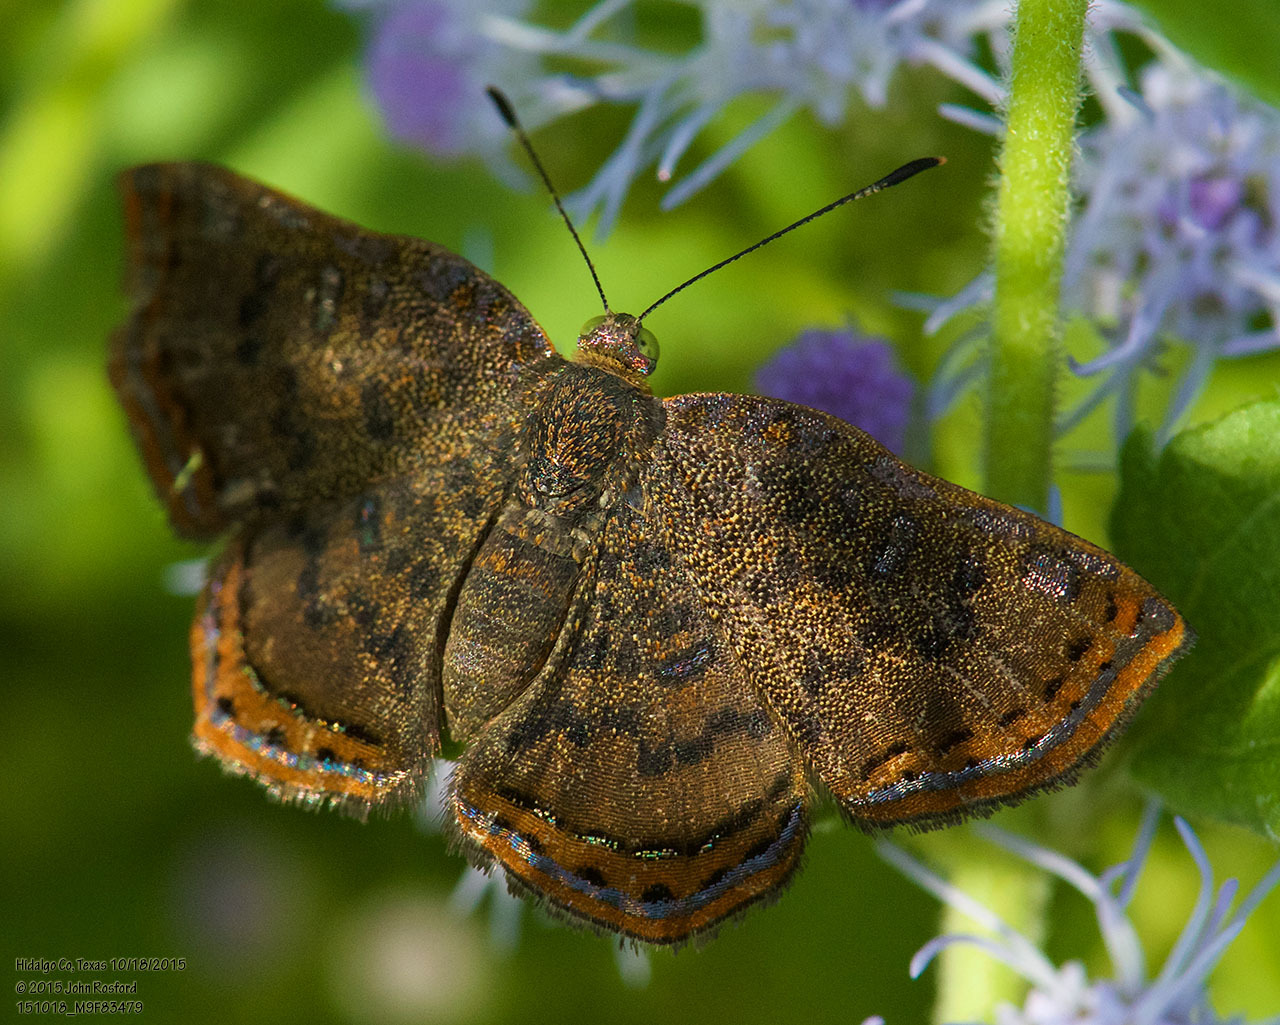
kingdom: Animalia
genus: Caria
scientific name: Caria ino
